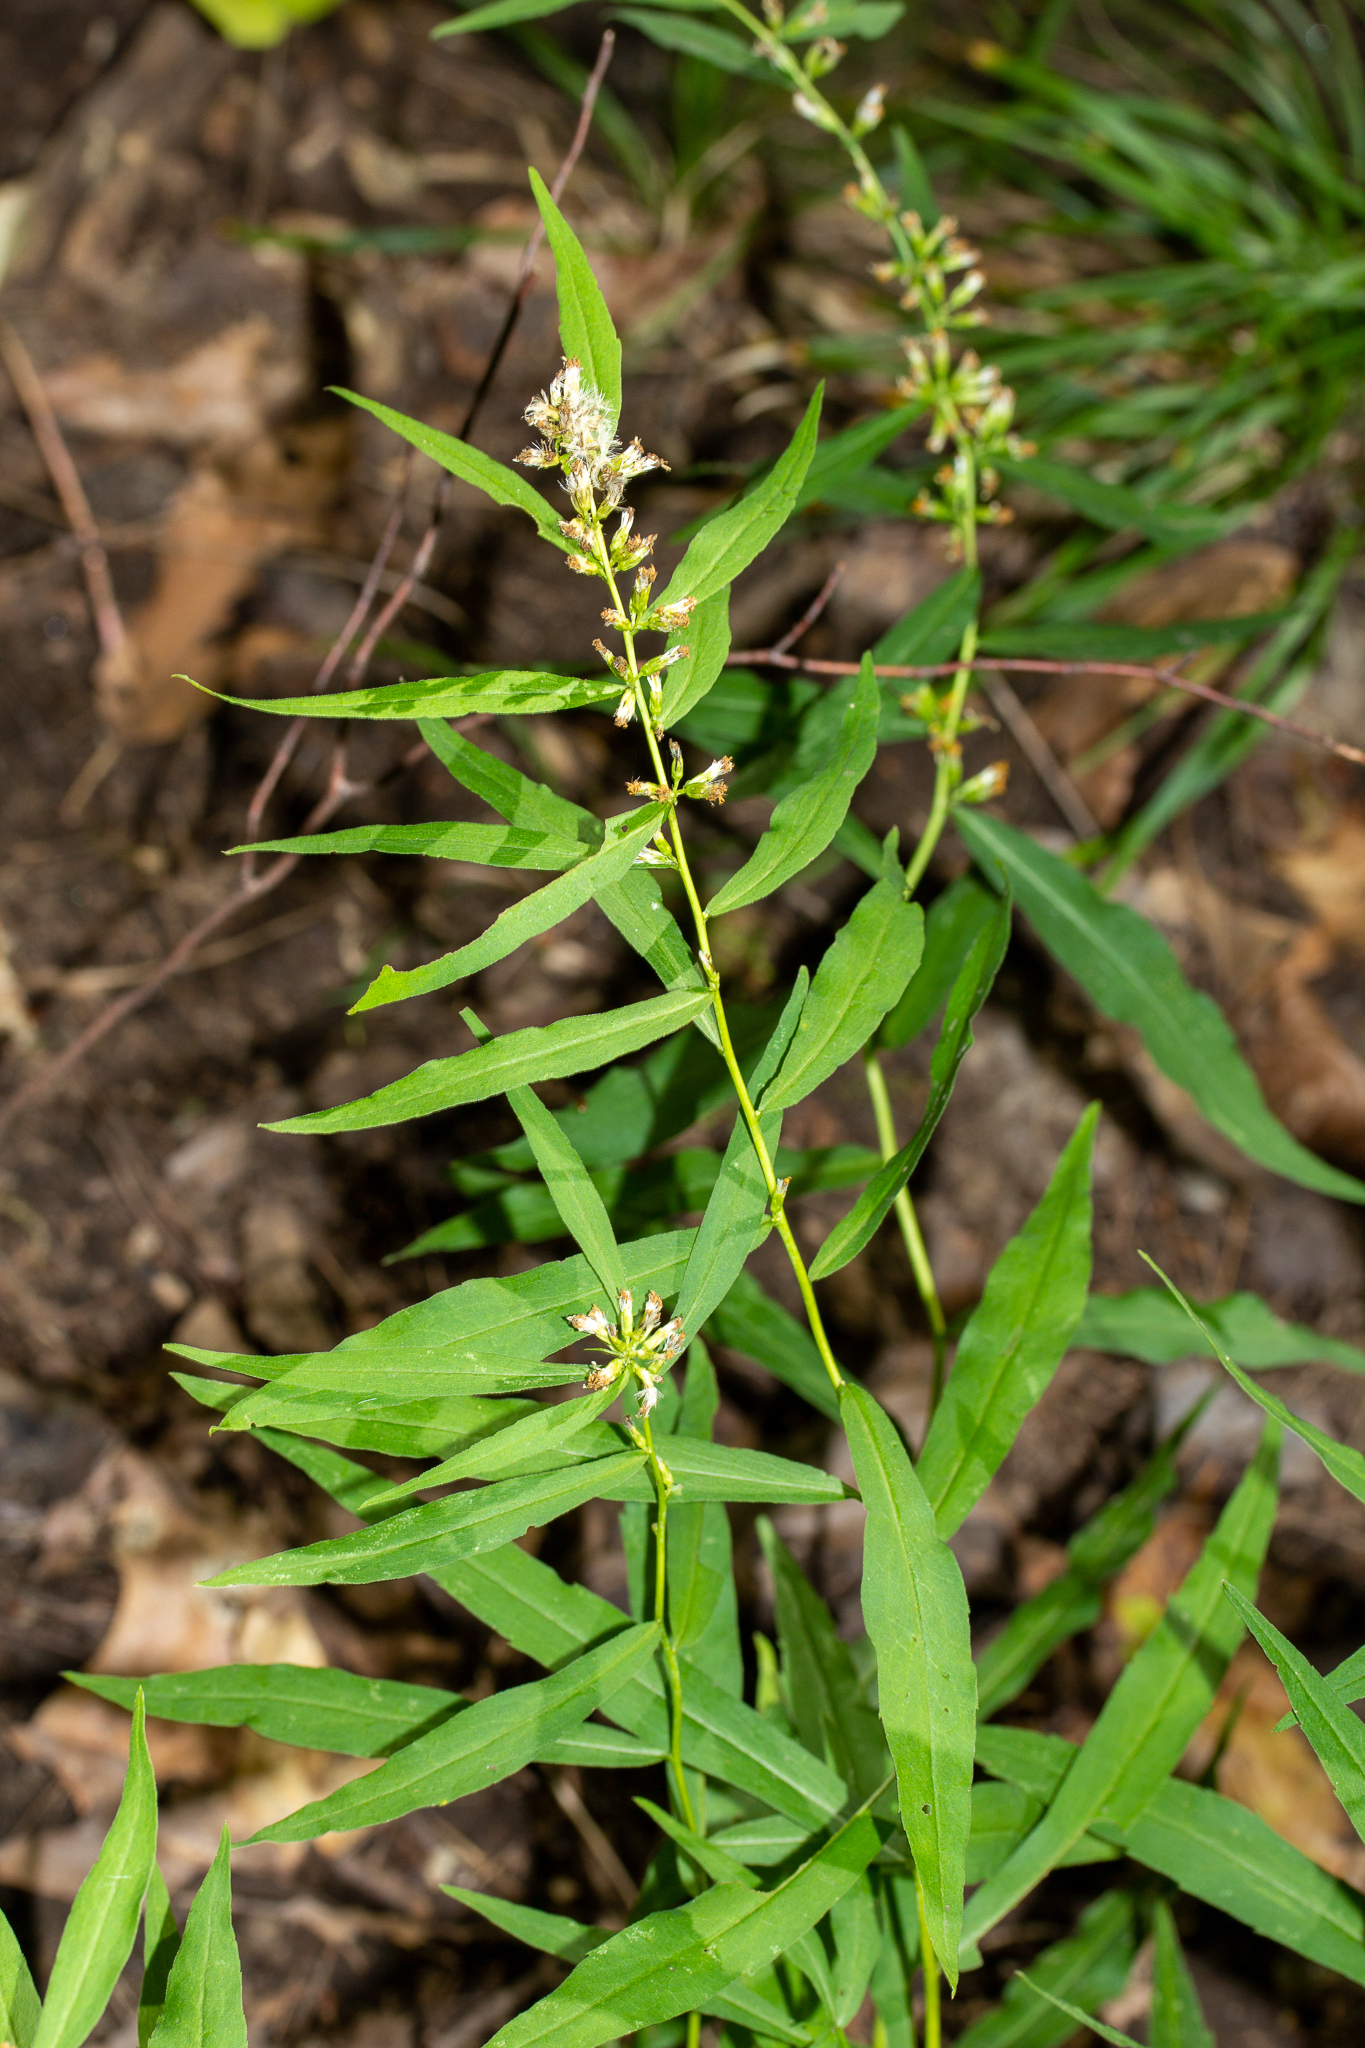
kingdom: Plantae
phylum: Tracheophyta
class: Magnoliopsida
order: Asterales
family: Asteraceae
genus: Solidago
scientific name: Solidago caesia
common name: Woodland goldenrod
